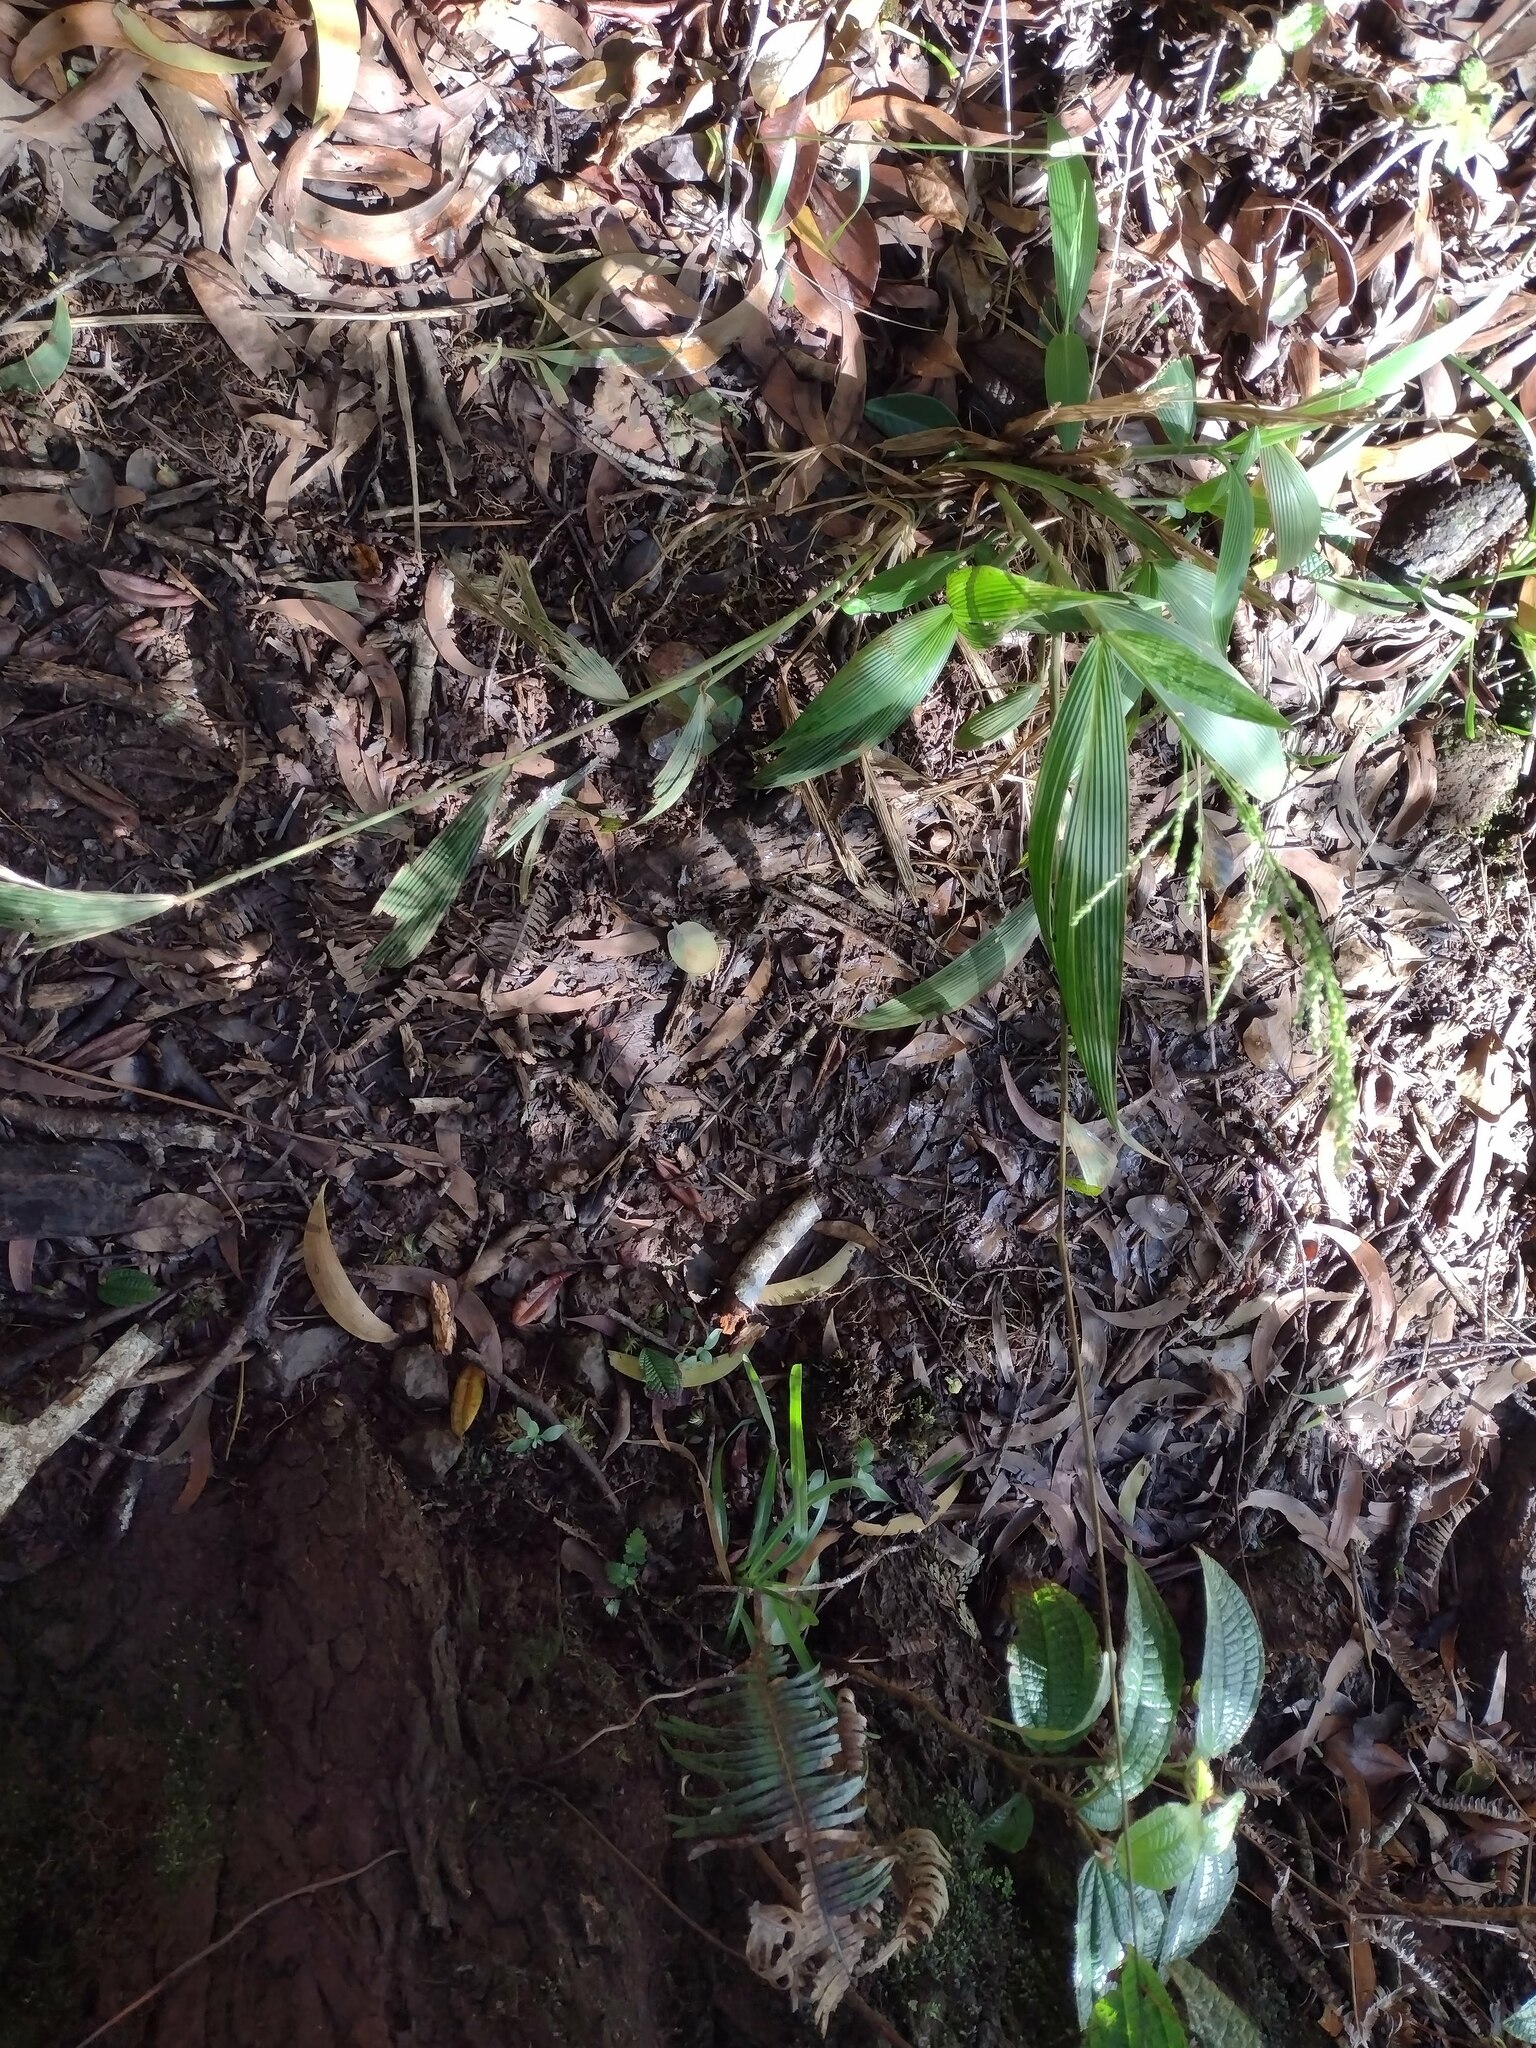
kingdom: Plantae
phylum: Tracheophyta
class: Liliopsida
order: Poales
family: Poaceae
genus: Setaria
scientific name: Setaria palmifolia
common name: Broadleaved bristlegrass
